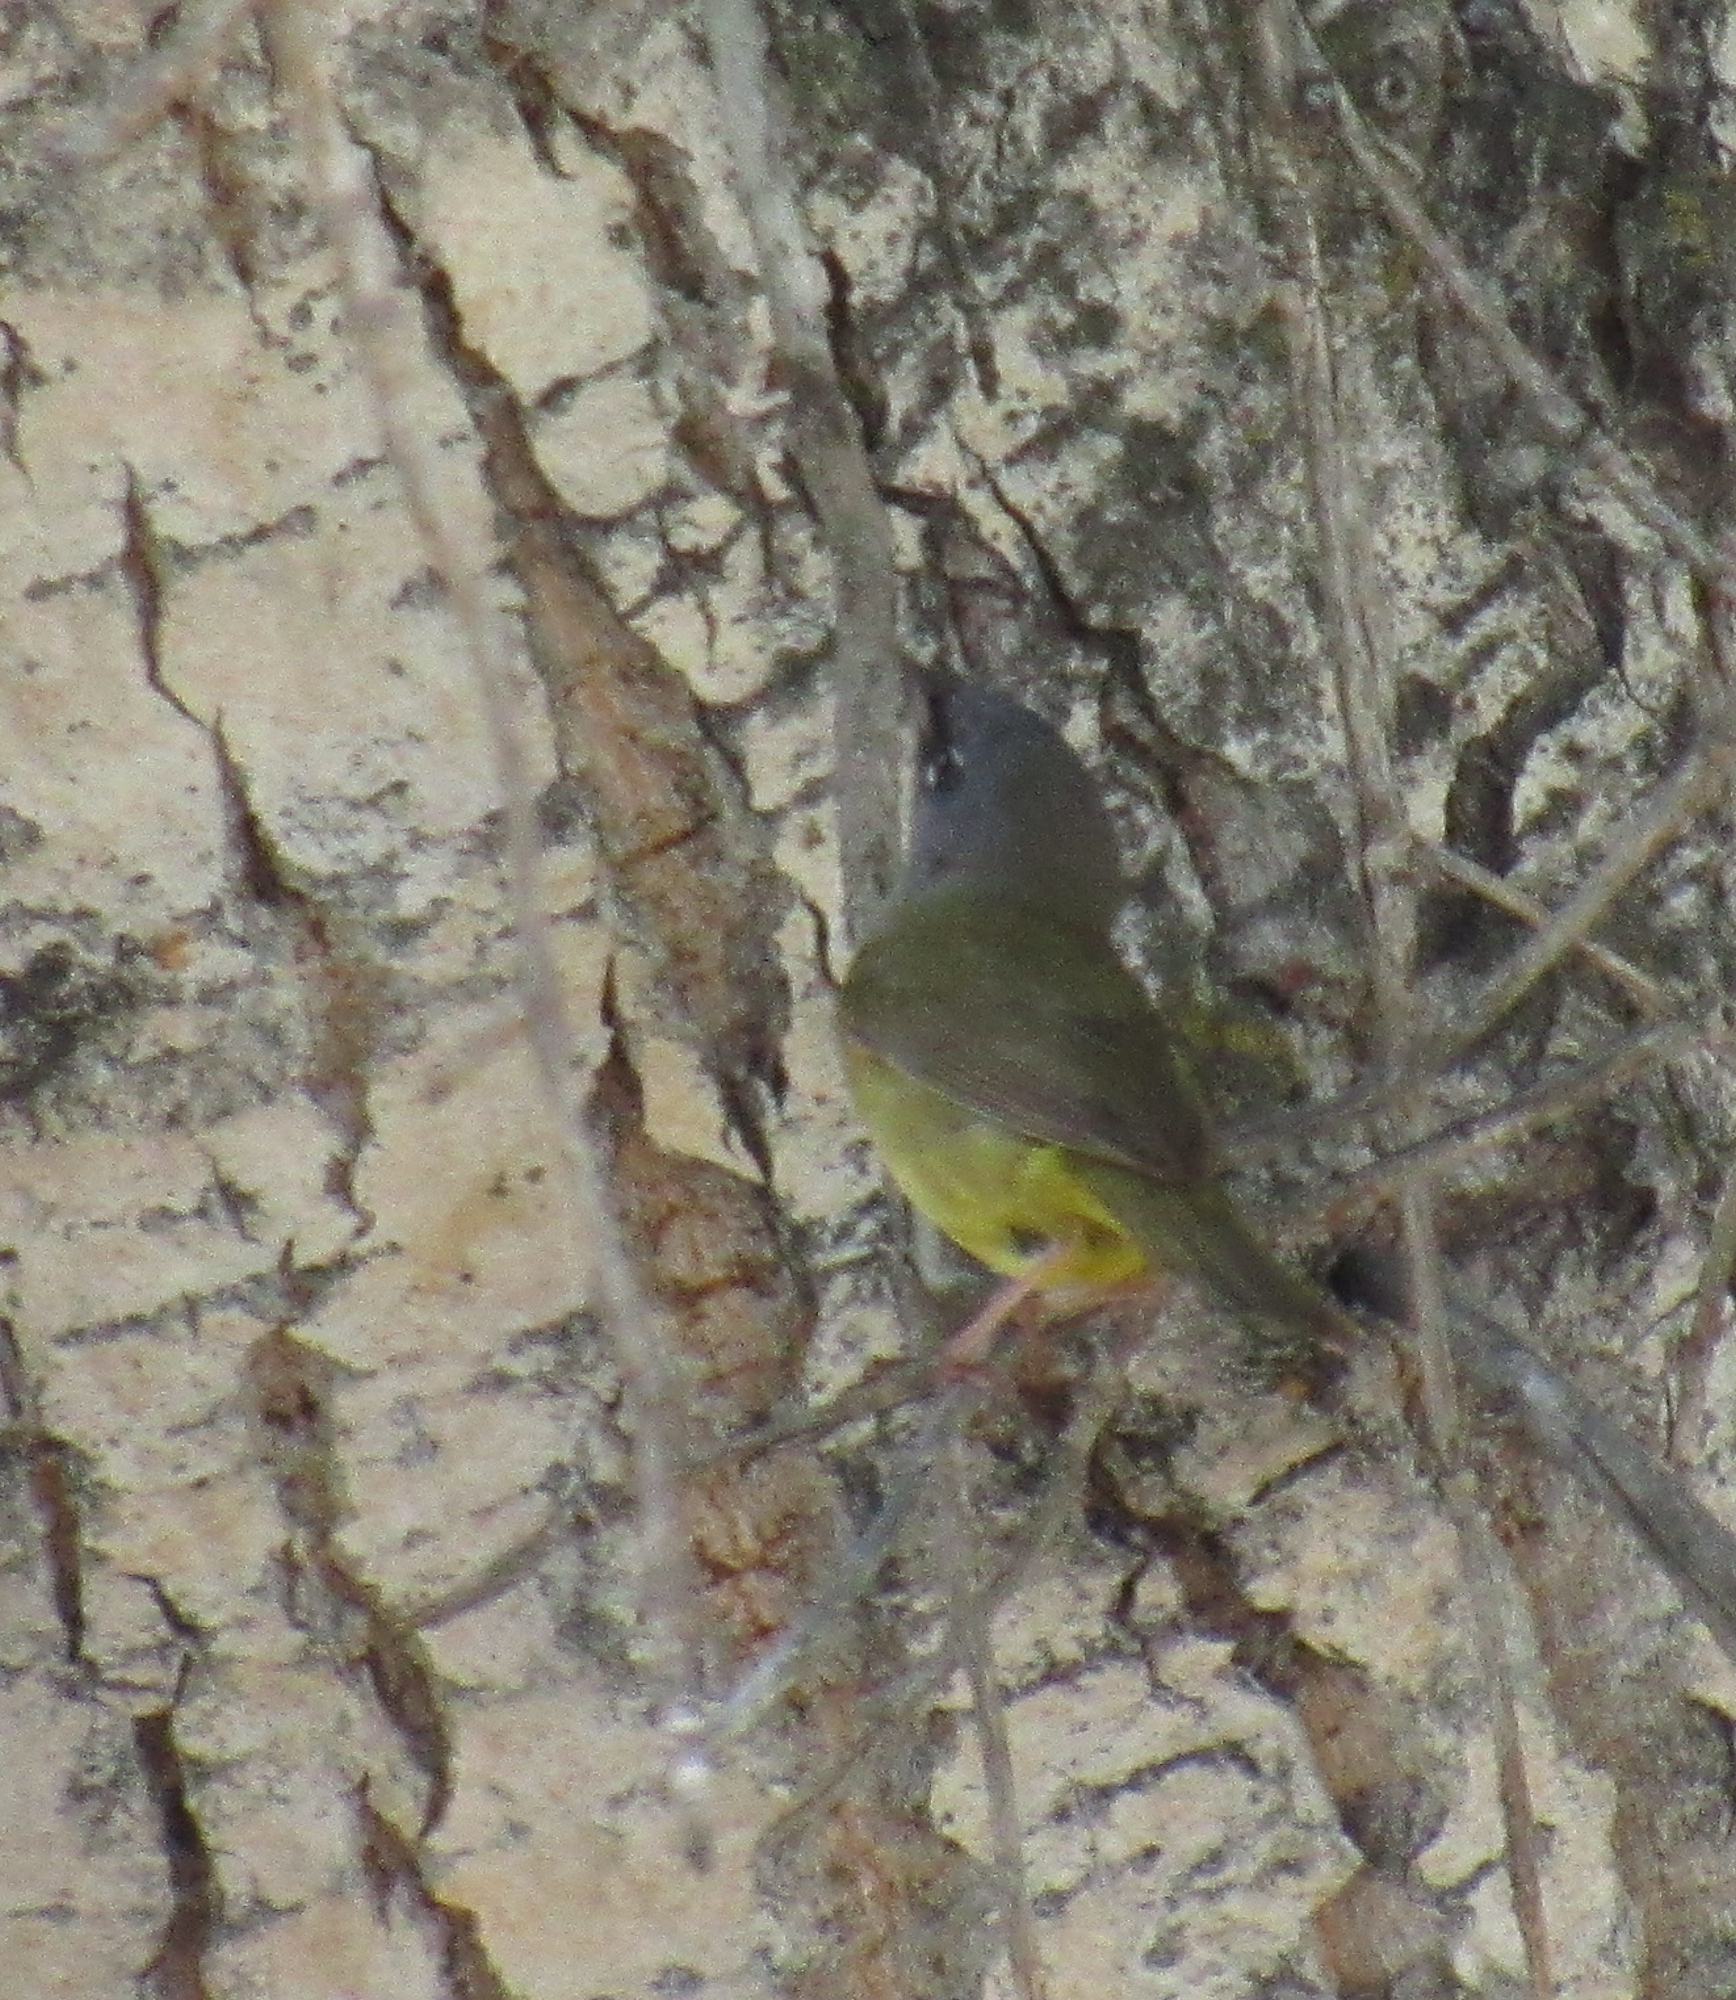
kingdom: Animalia
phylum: Chordata
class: Aves
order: Passeriformes
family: Parulidae
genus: Geothlypis
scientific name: Geothlypis tolmiei
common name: Macgillivray's warbler
